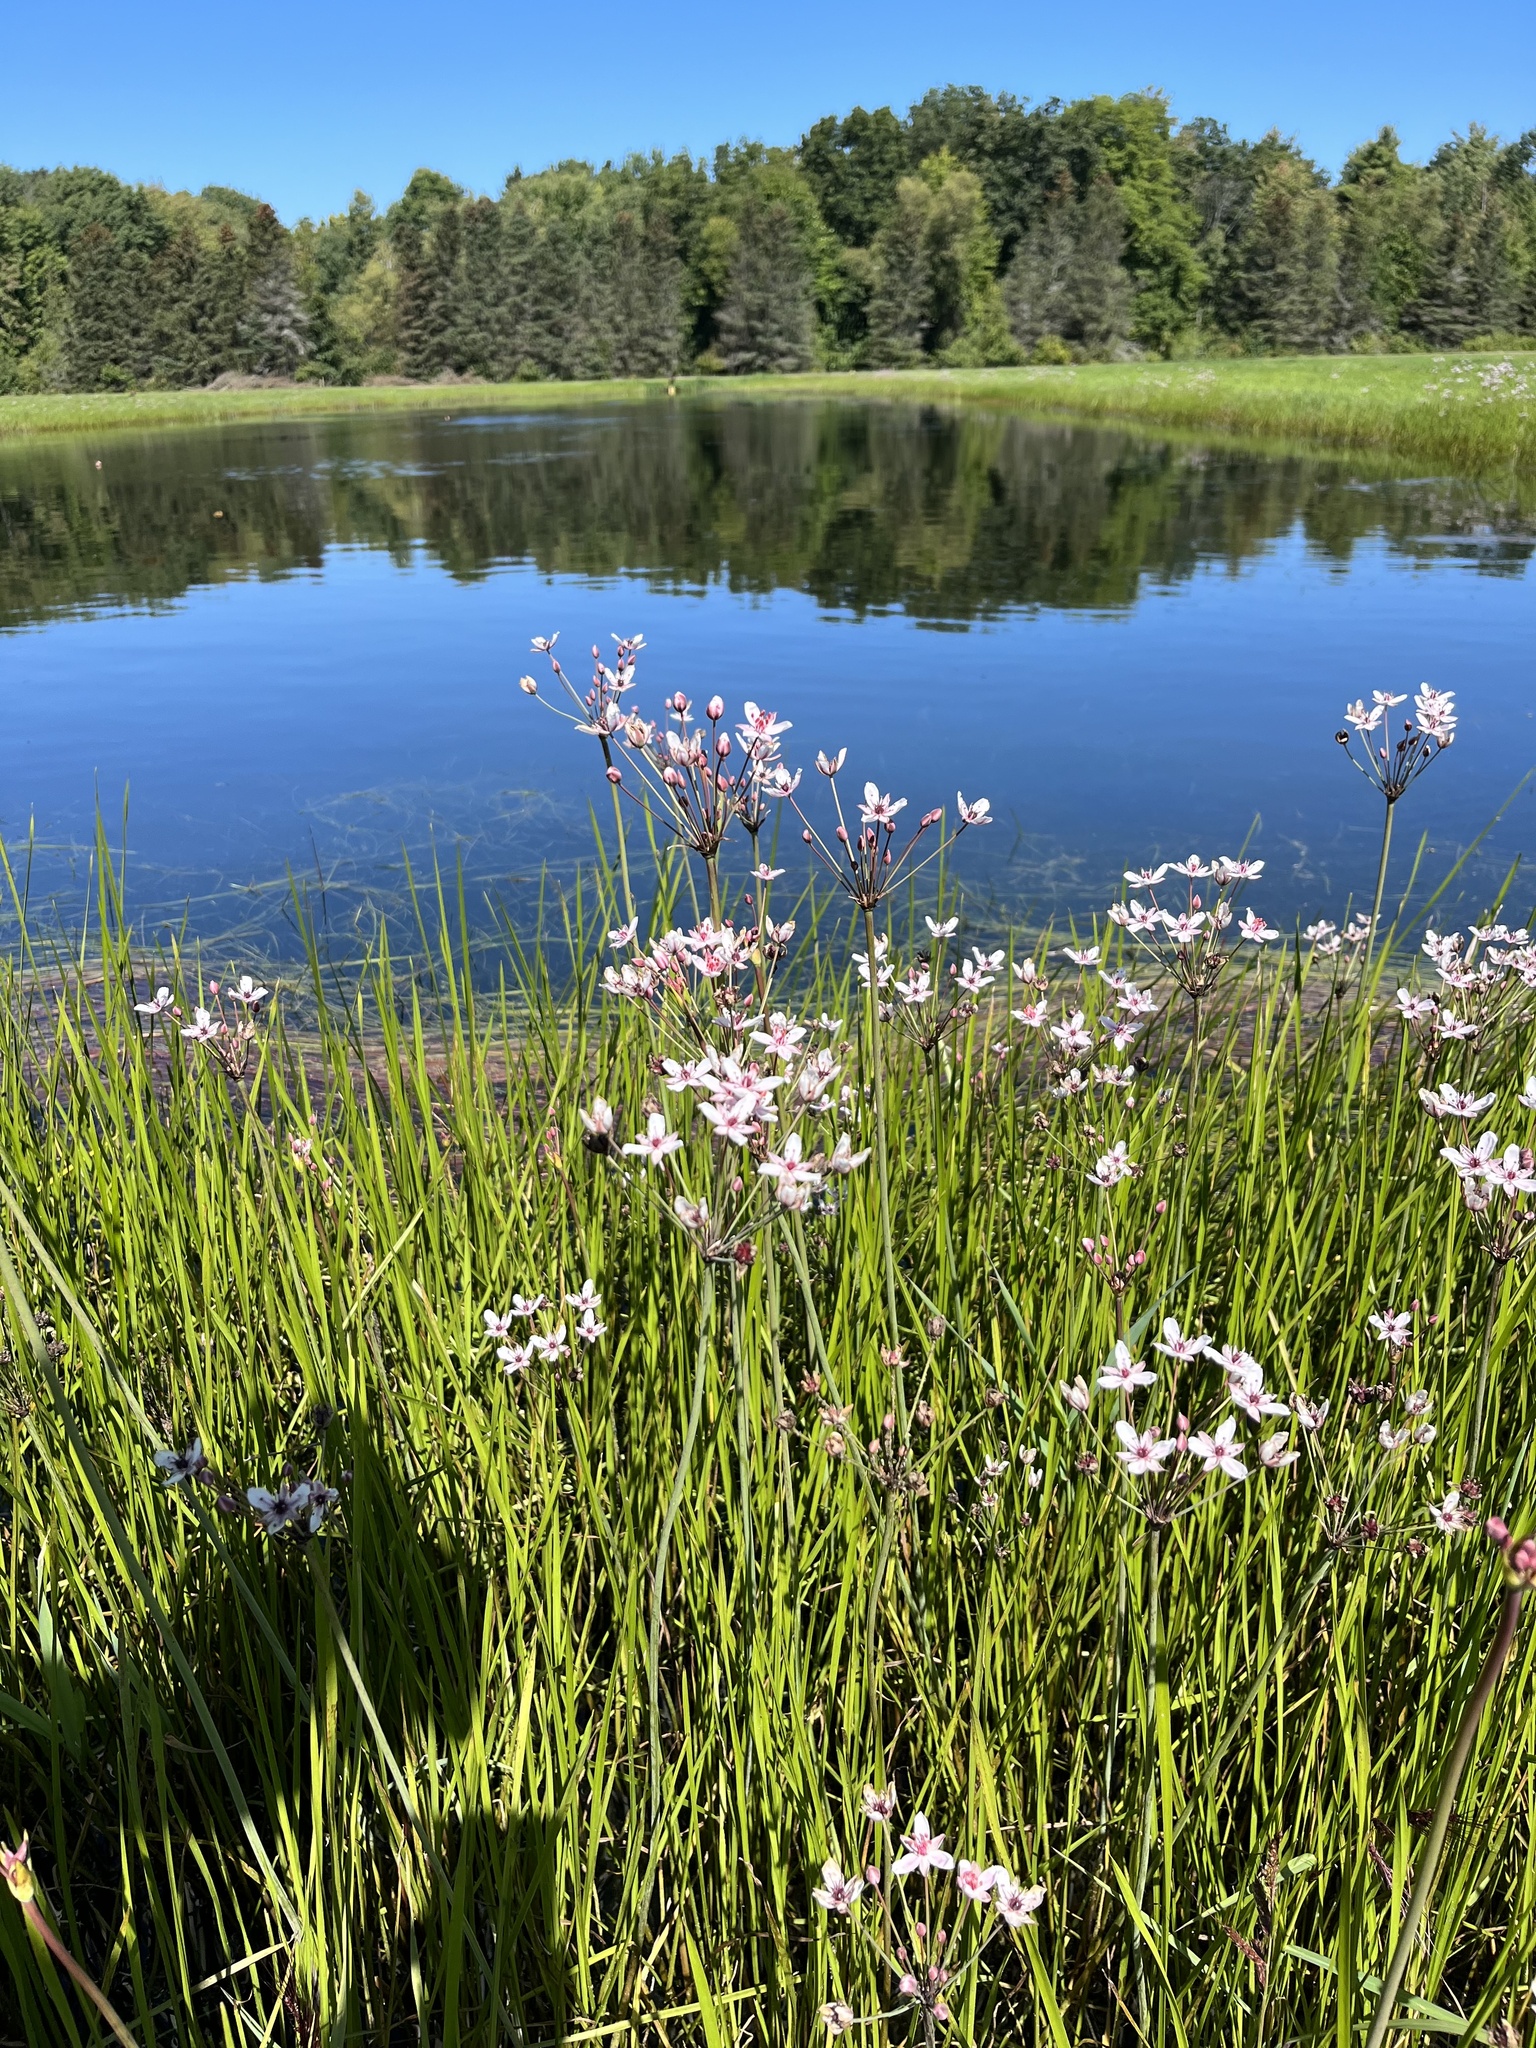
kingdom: Plantae
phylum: Tracheophyta
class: Liliopsida
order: Alismatales
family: Butomaceae
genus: Butomus
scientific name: Butomus umbellatus
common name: Flowering-rush
